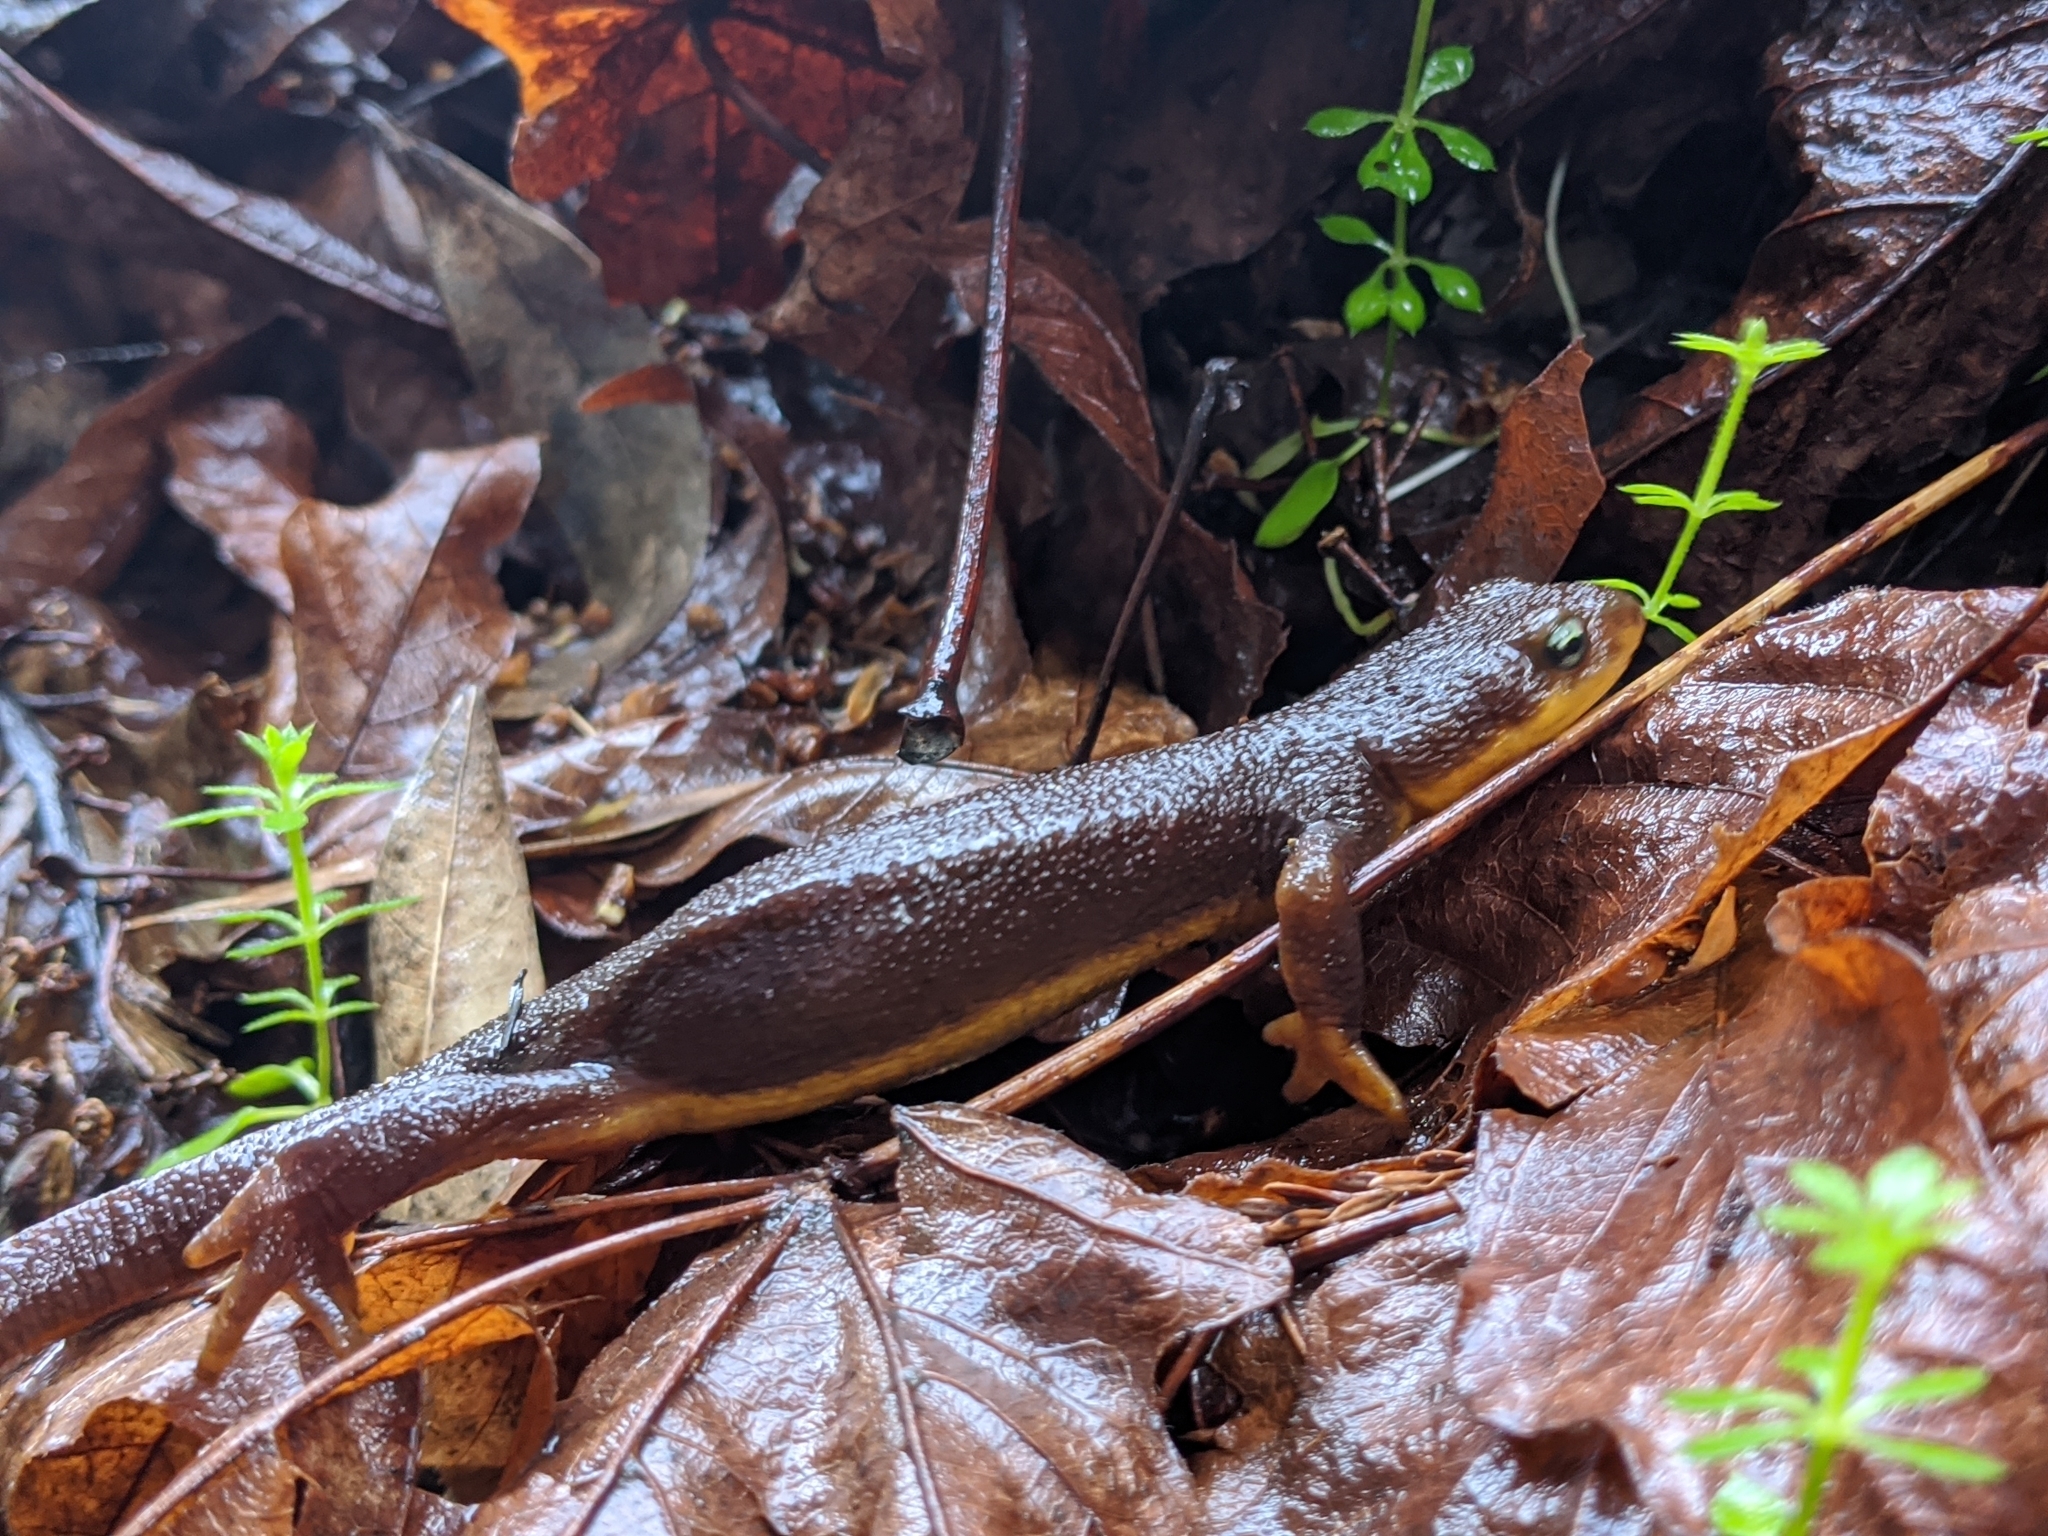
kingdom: Animalia
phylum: Chordata
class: Amphibia
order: Caudata
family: Salamandridae
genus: Taricha
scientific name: Taricha granulosa
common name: Roughskin newt
